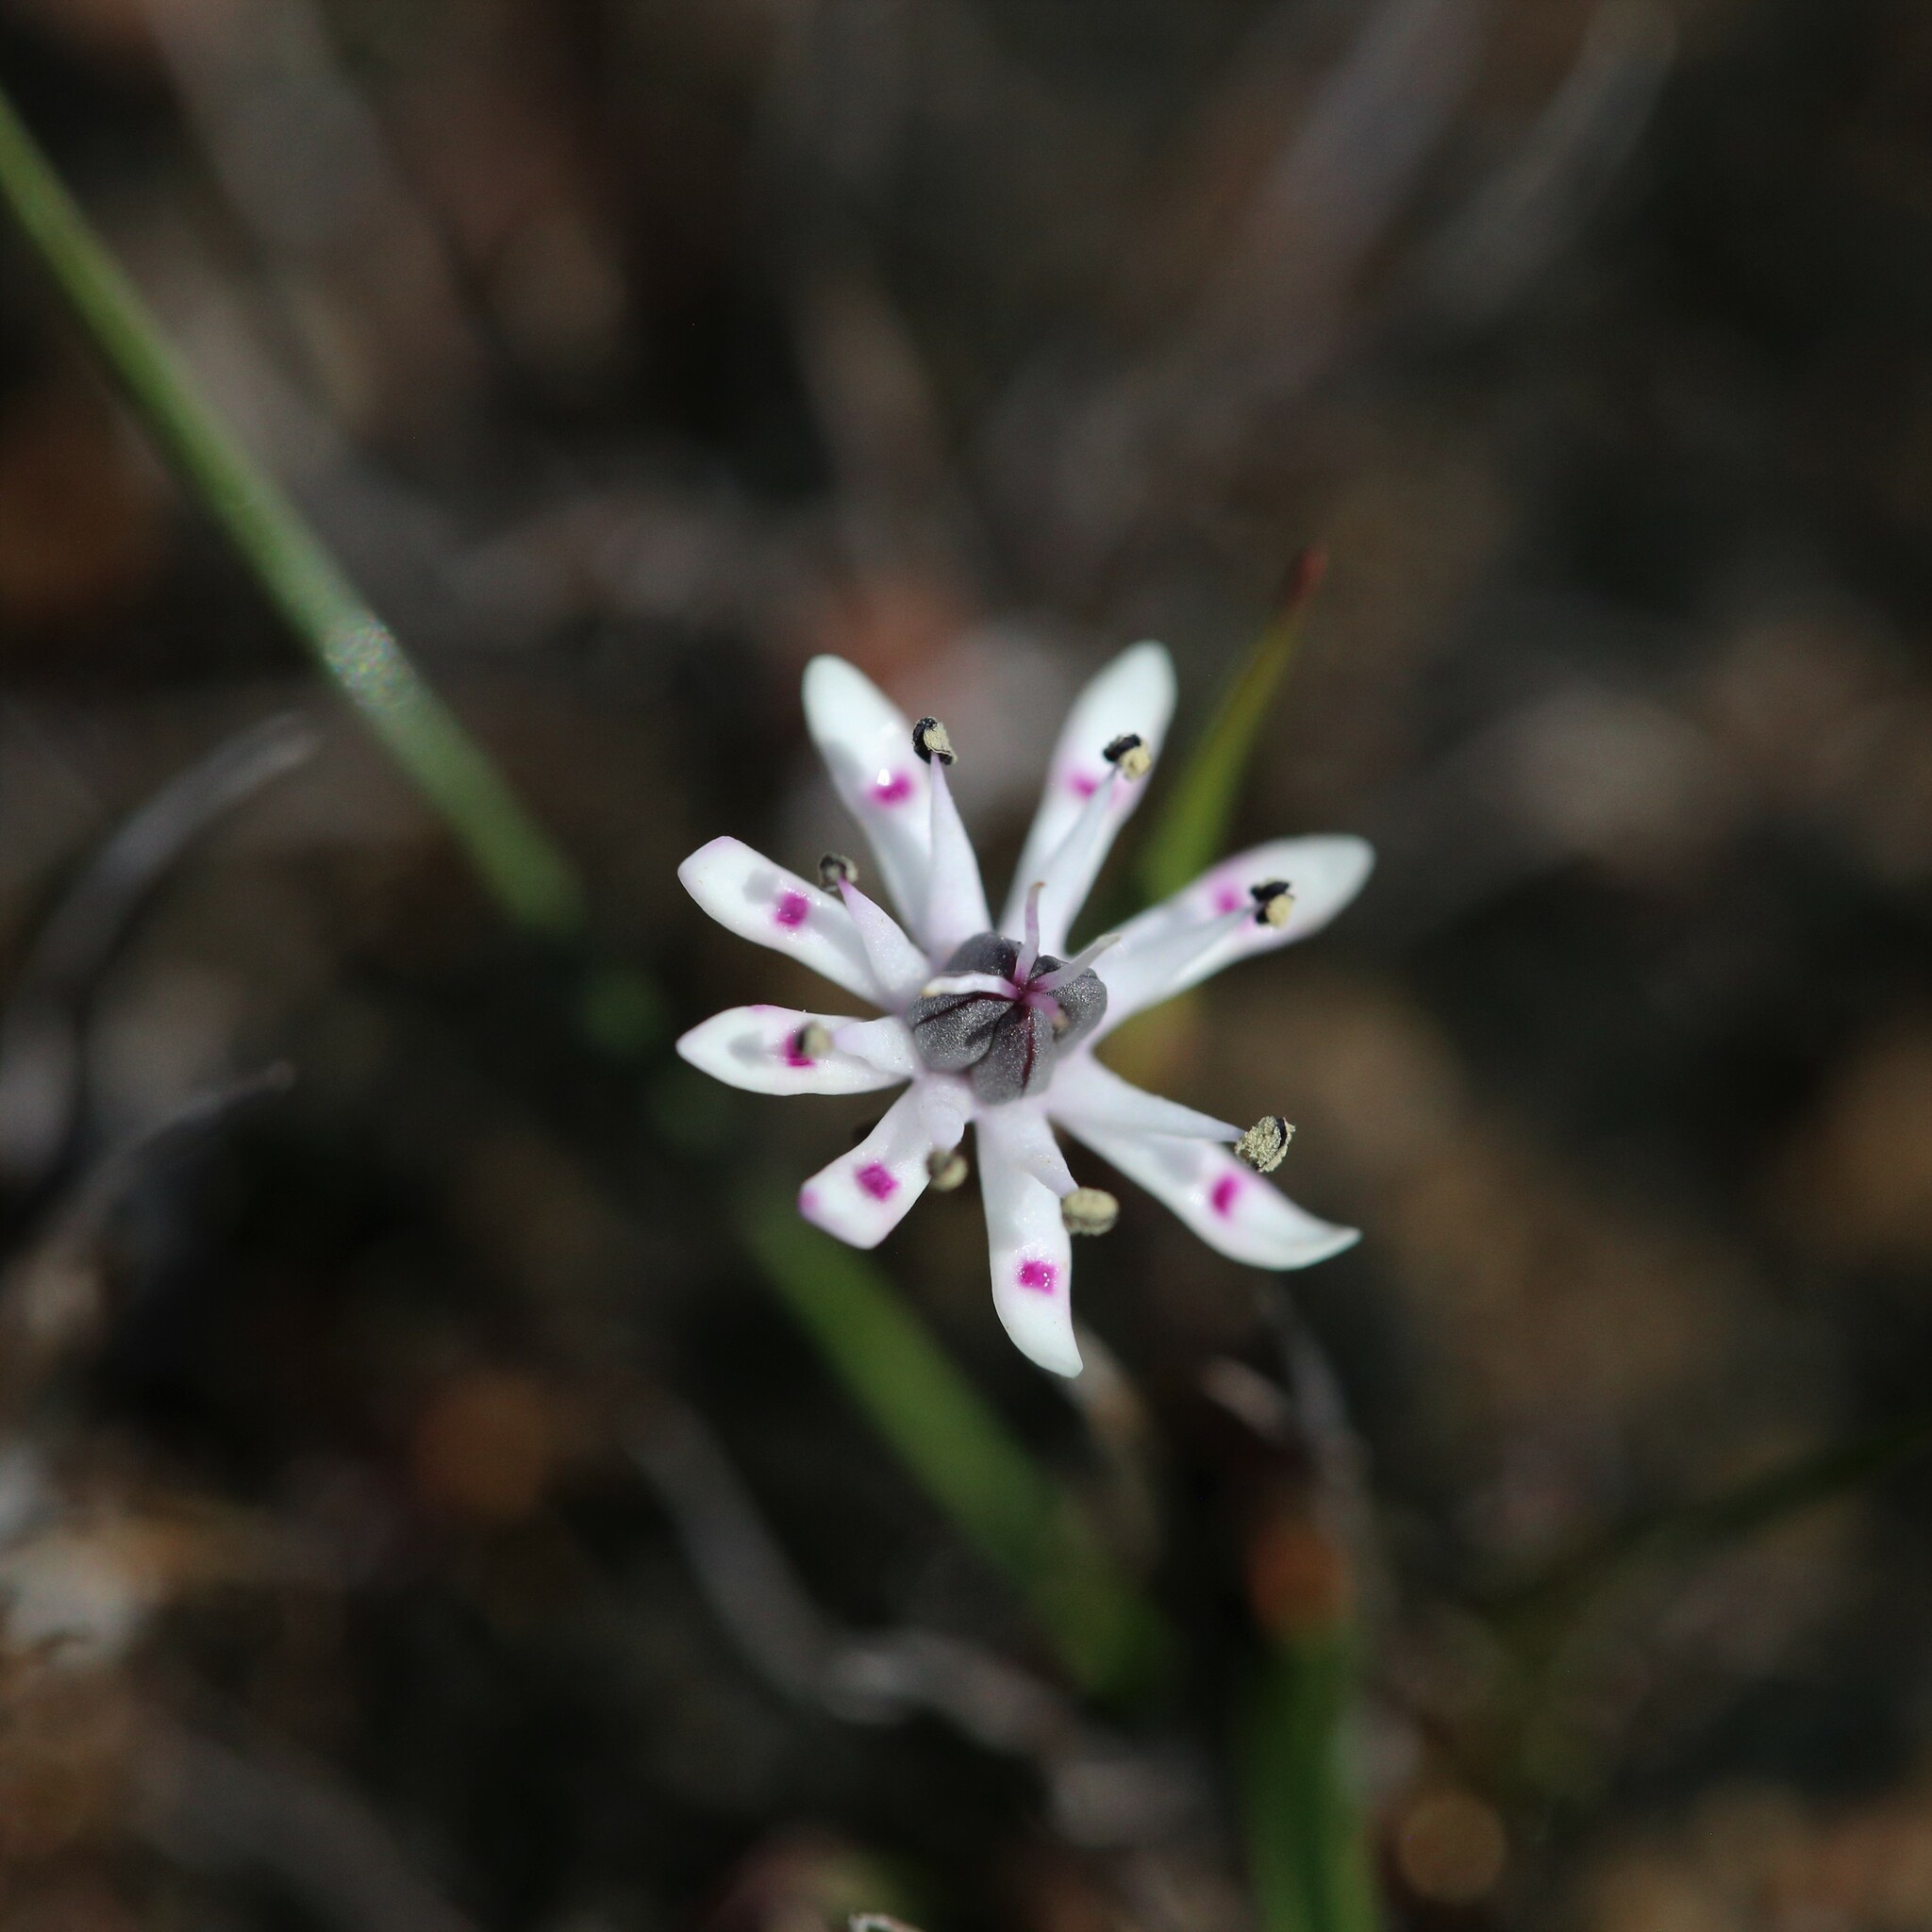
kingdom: Plantae
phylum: Tracheophyta
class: Liliopsida
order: Liliales
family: Colchicaceae
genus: Wurmbea
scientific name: Wurmbea tenella
